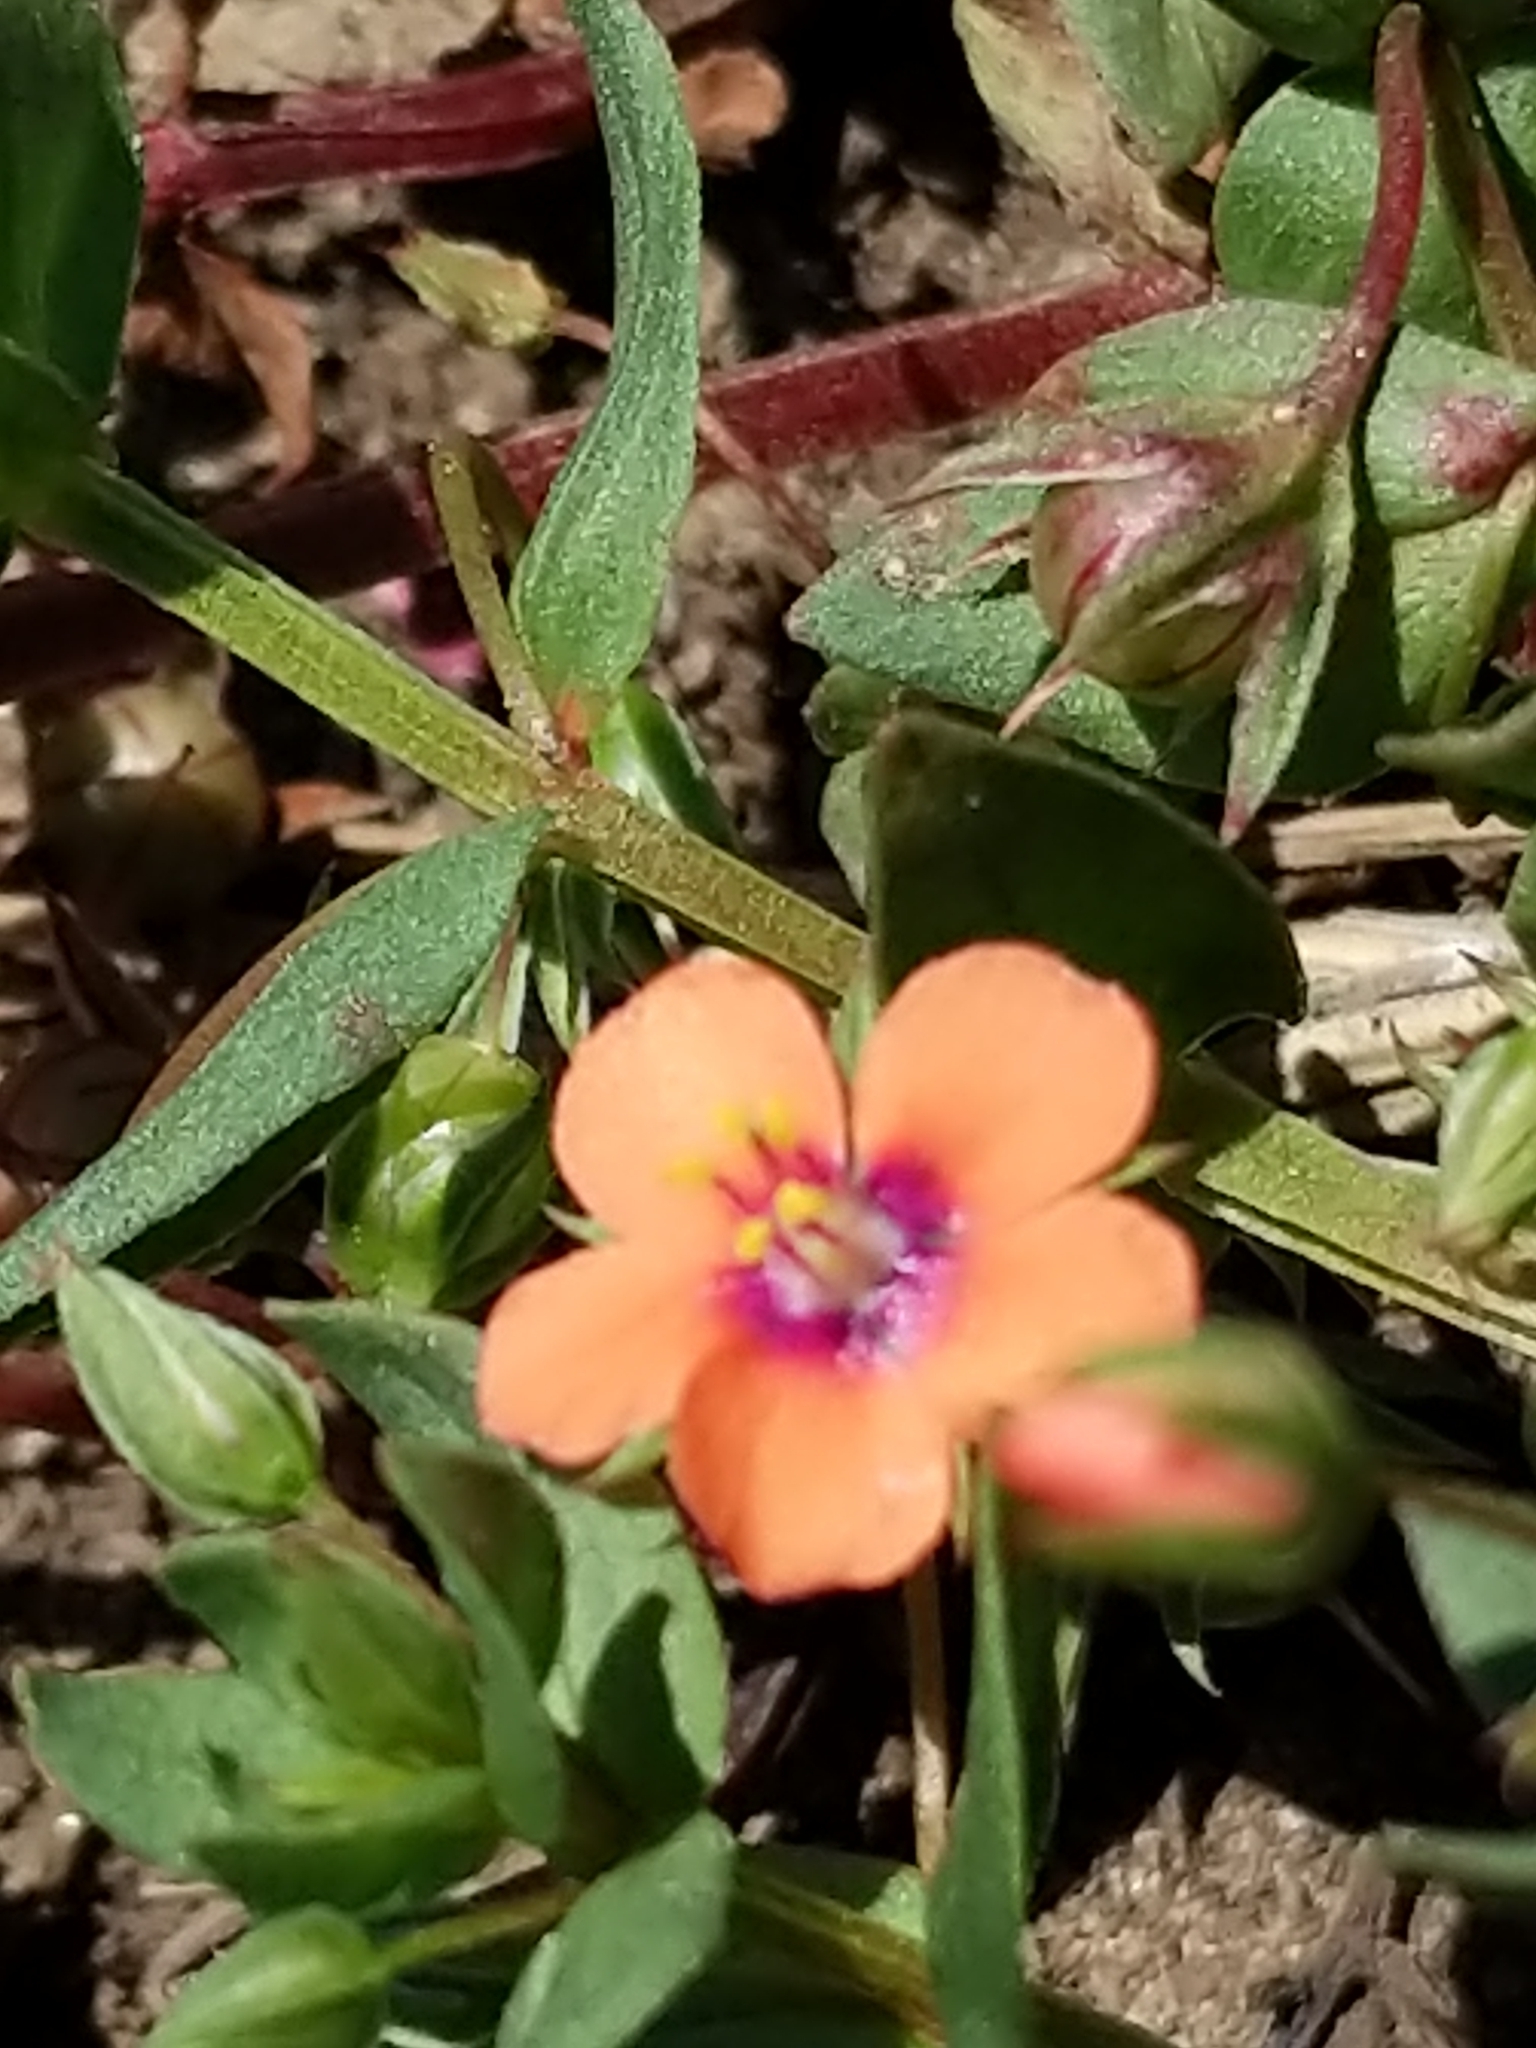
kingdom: Plantae
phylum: Tracheophyta
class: Magnoliopsida
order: Ericales
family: Primulaceae
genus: Lysimachia
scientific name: Lysimachia arvensis
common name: Scarlet pimpernel
